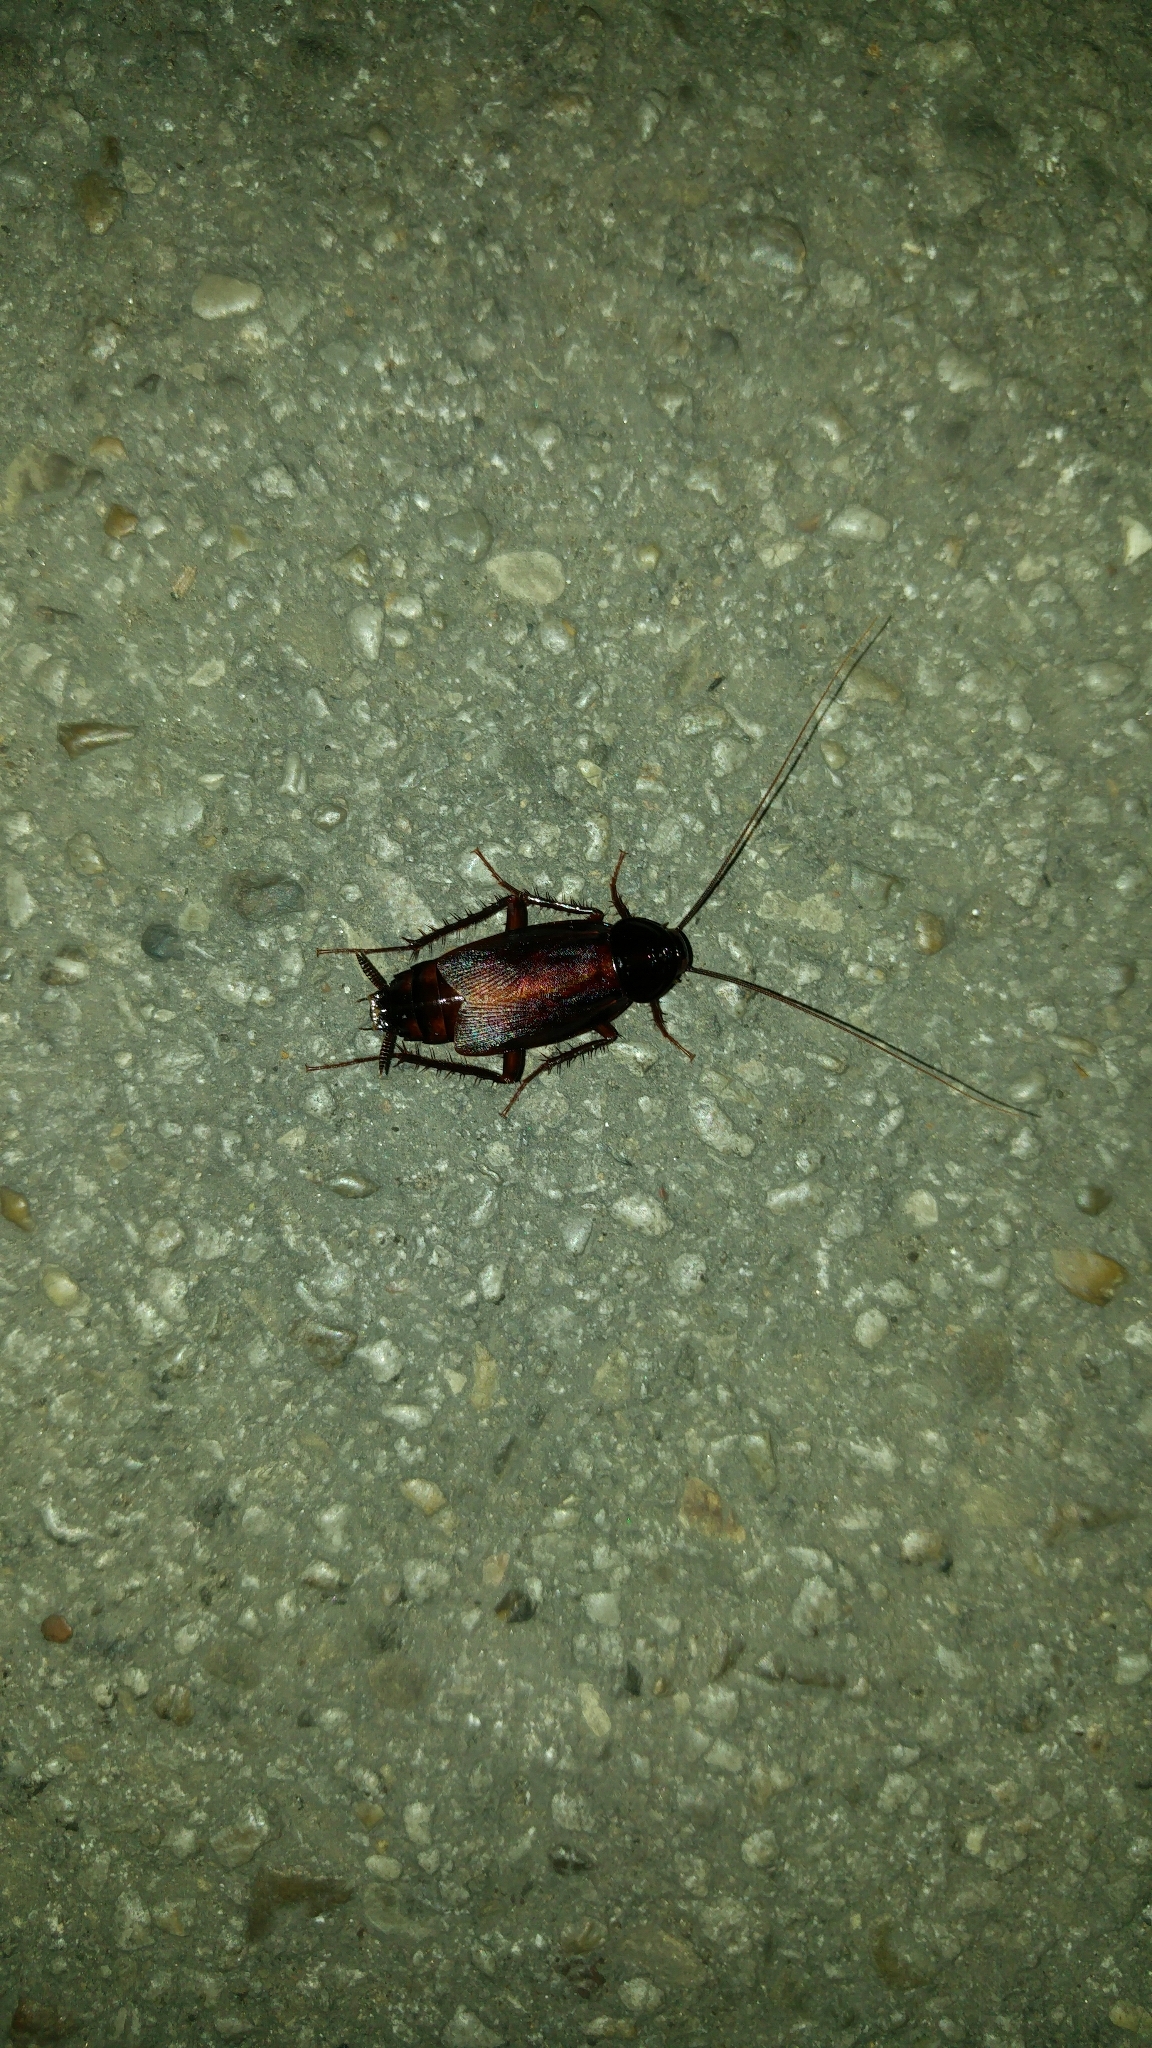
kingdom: Animalia
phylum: Arthropoda
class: Insecta
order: Blattodea
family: Blattidae
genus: Blatta
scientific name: Blatta orientalis
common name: Oriental cockroach
